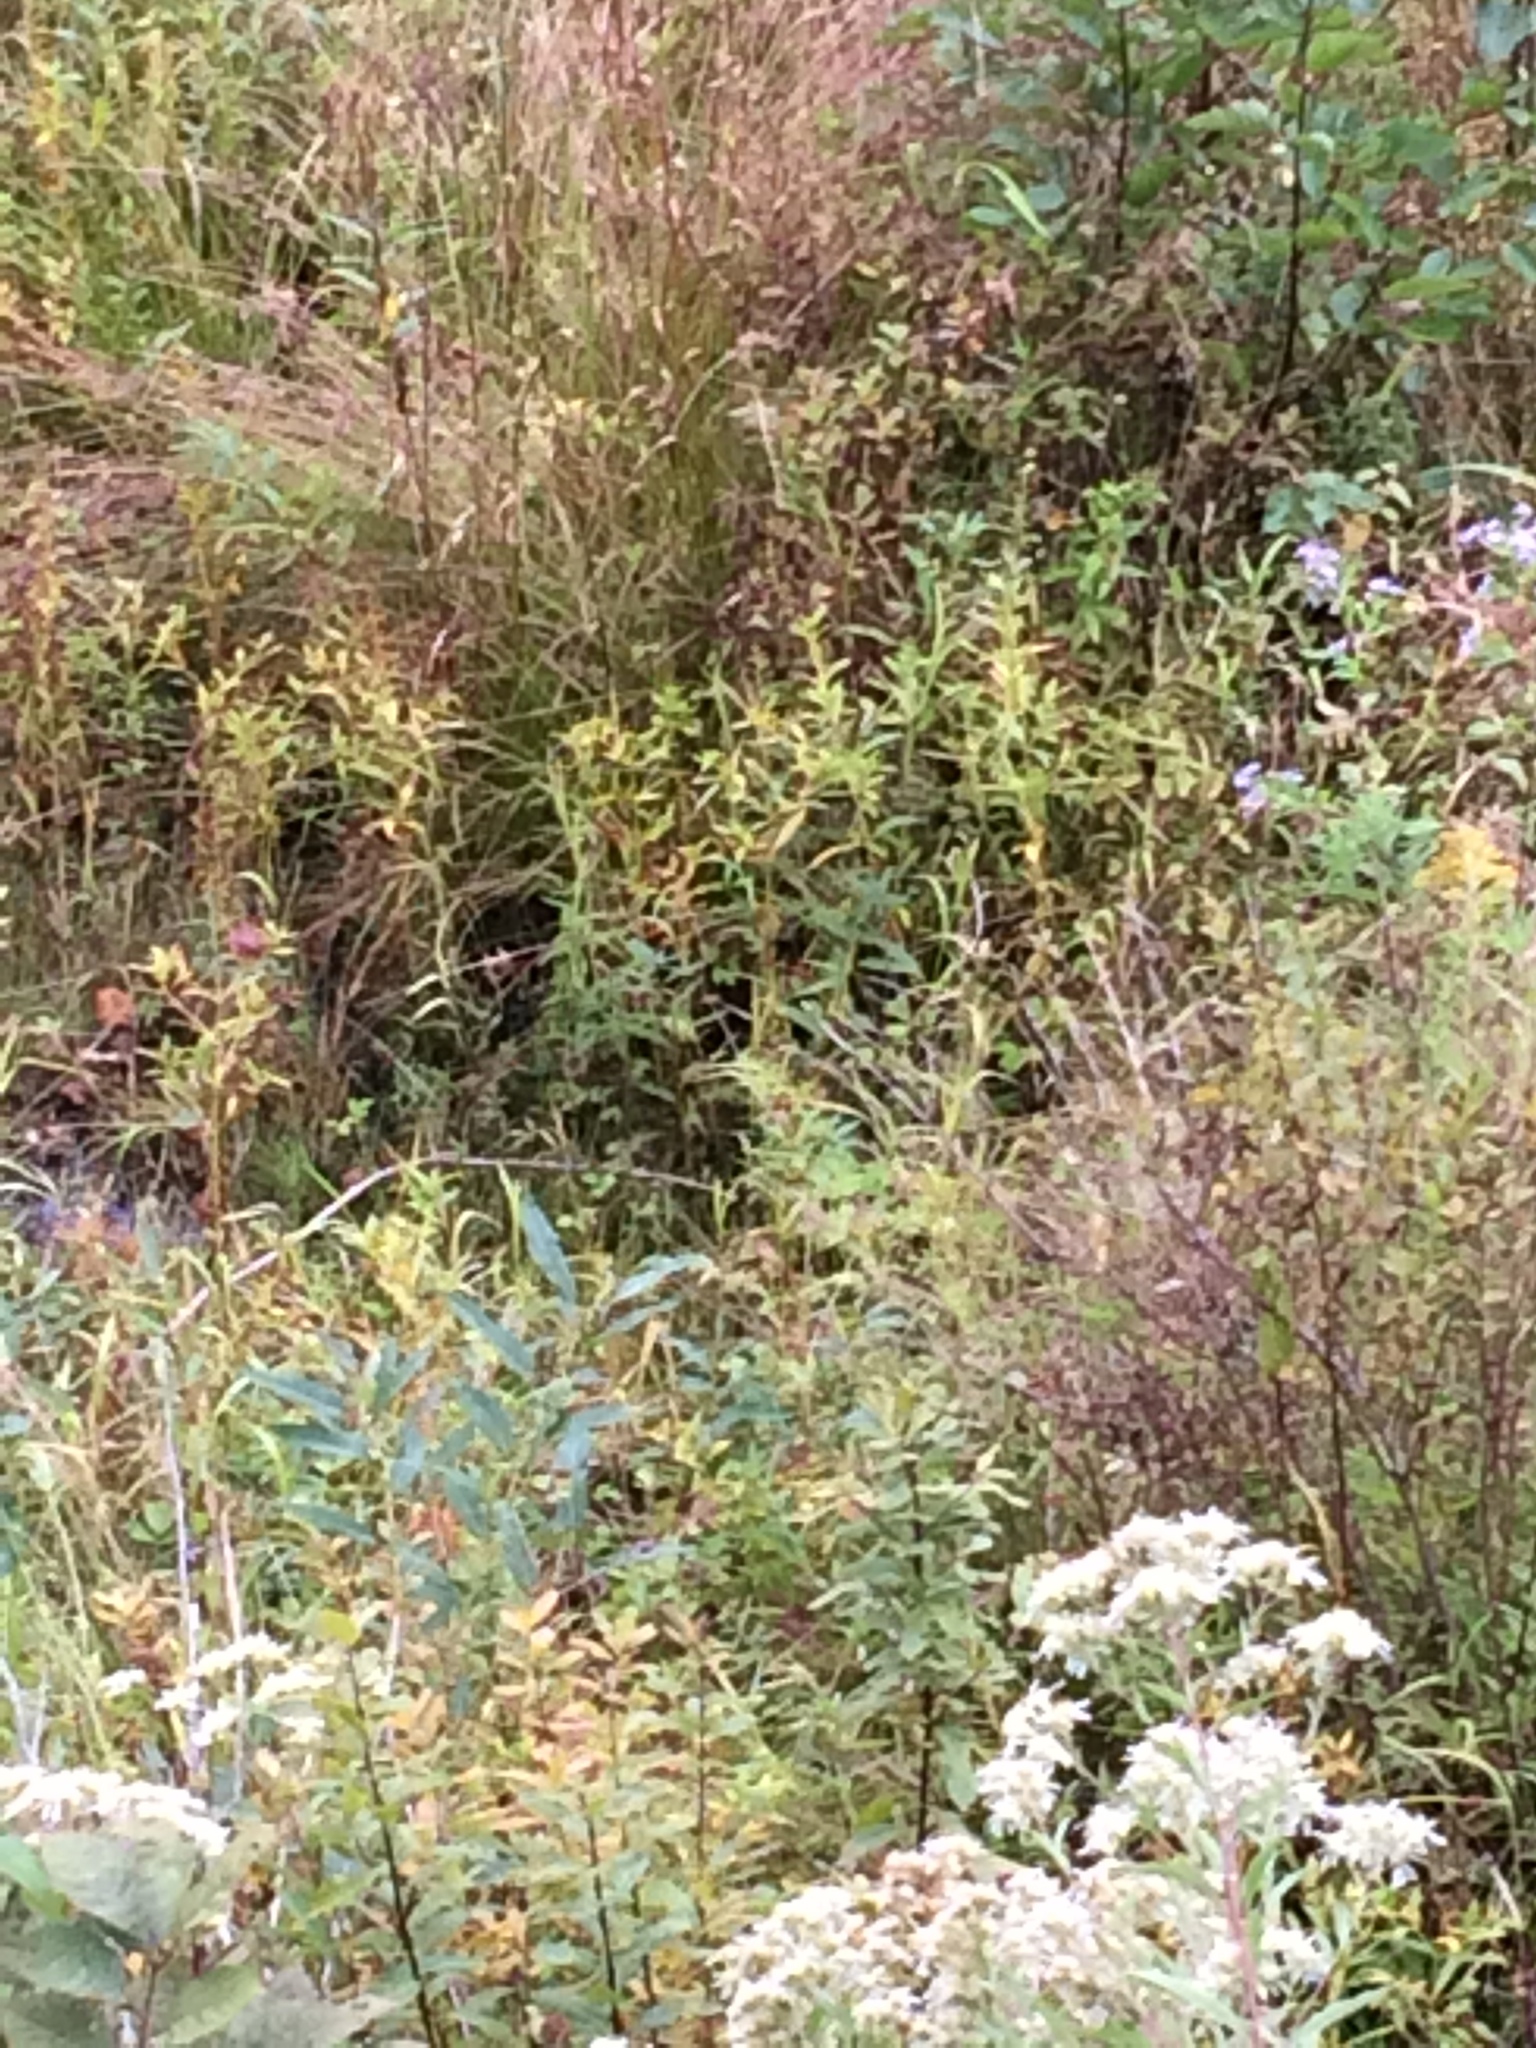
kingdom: Plantae
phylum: Tracheophyta
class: Magnoliopsida
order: Ericales
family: Primulaceae
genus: Lysimachia
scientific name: Lysimachia terrestris
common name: Lake loosestrife
